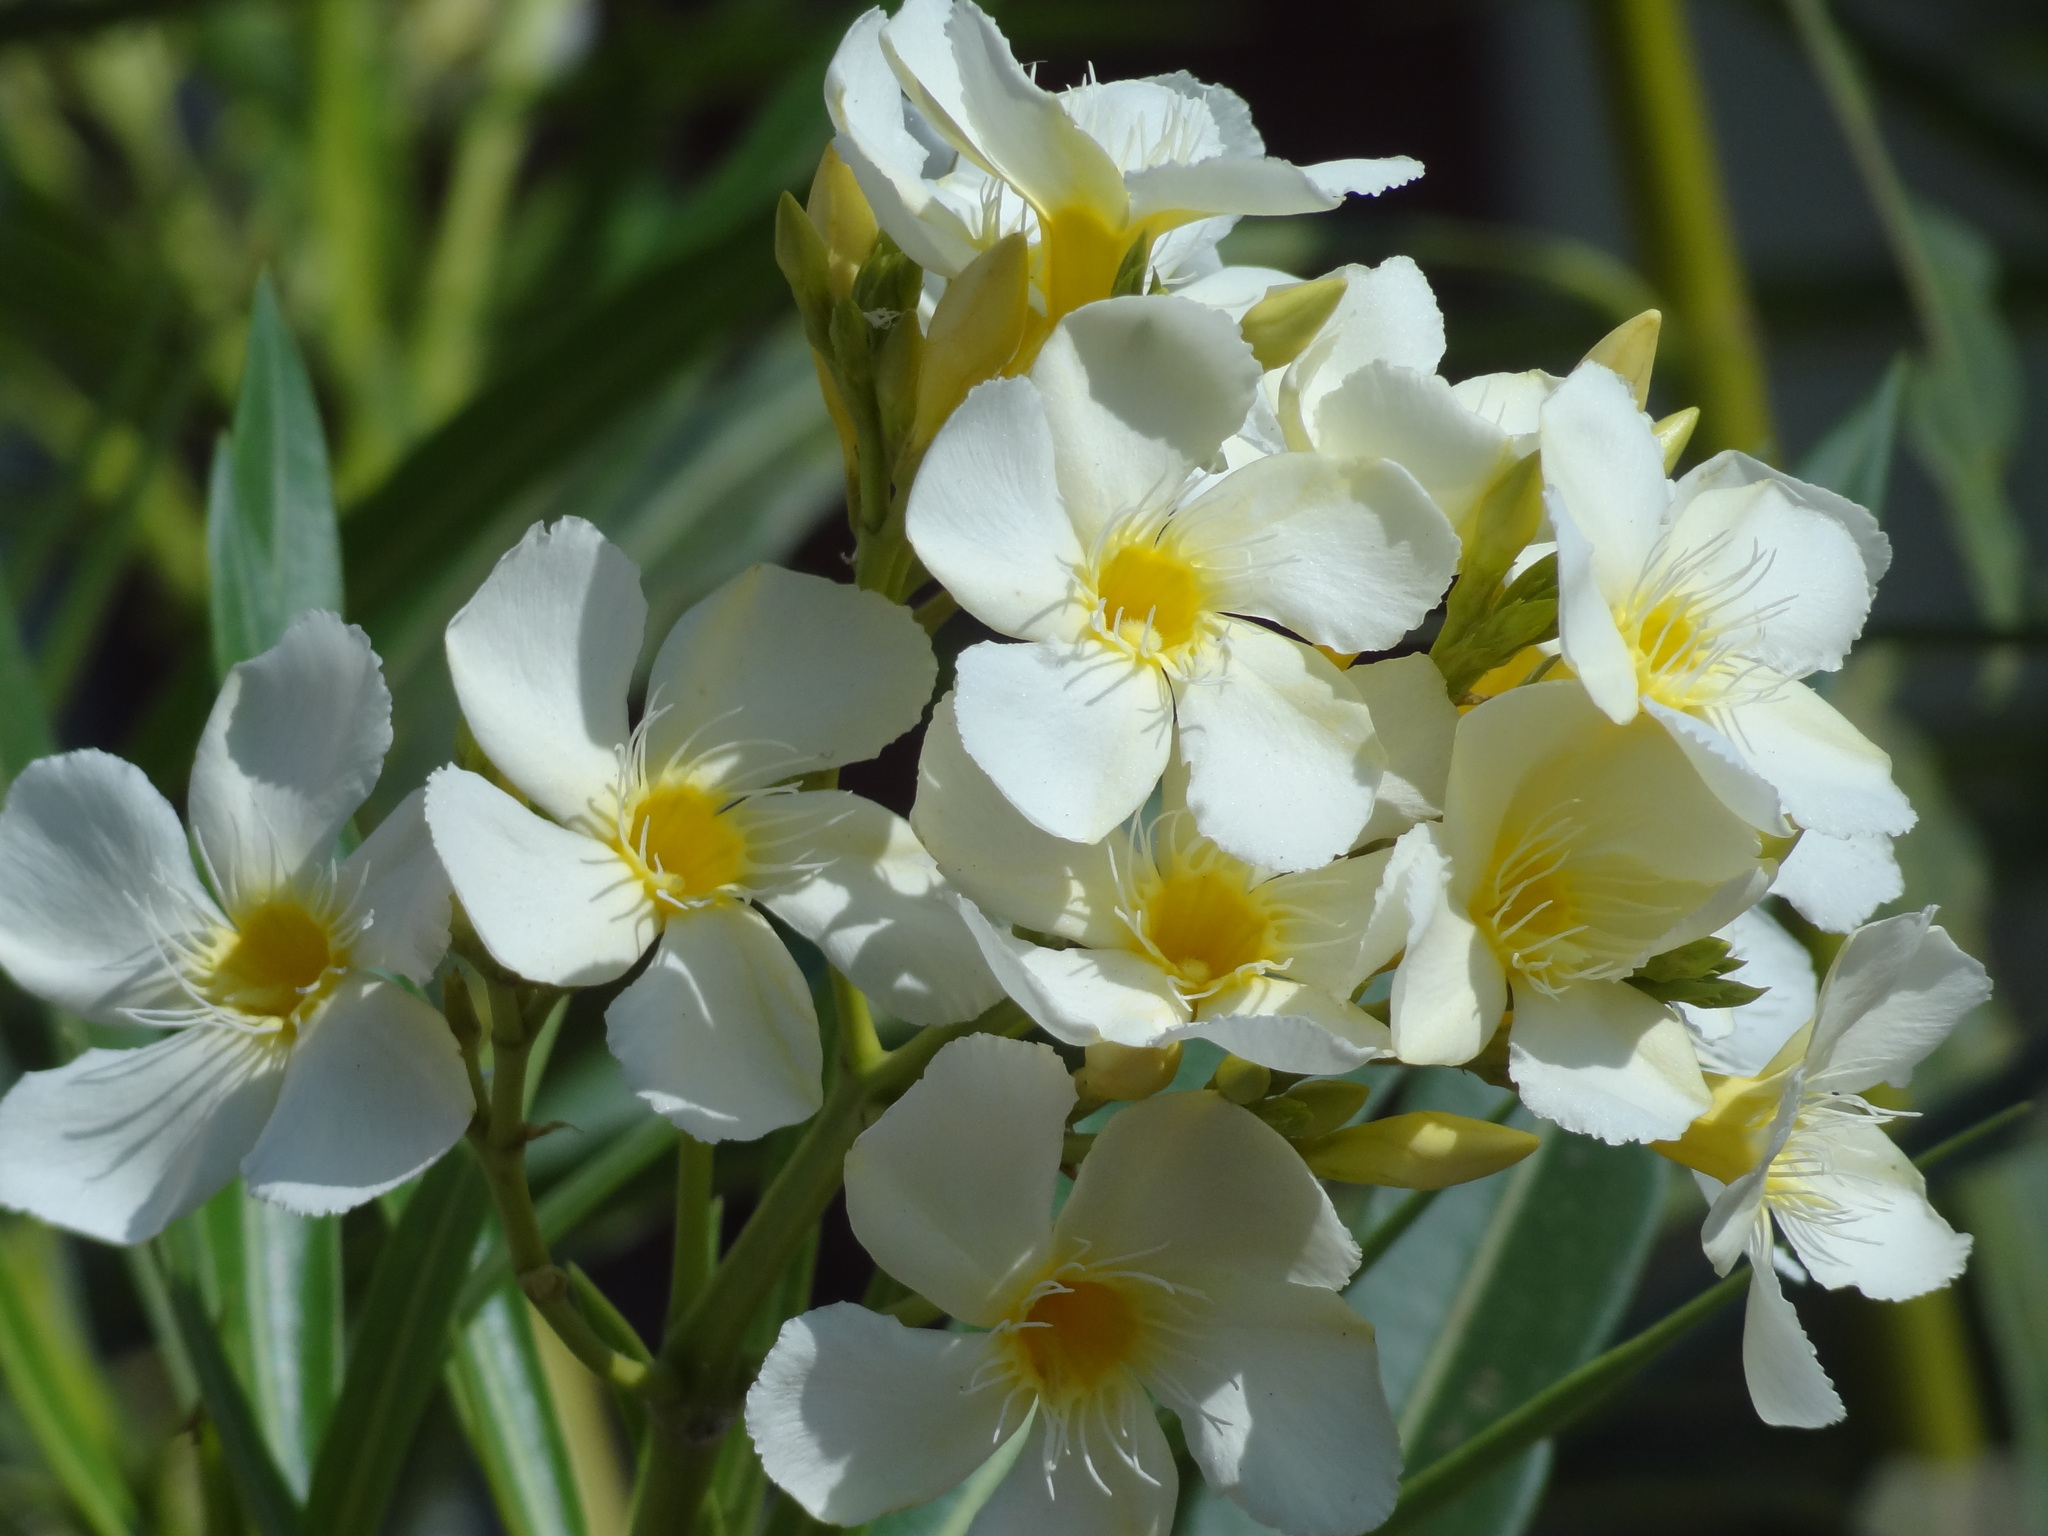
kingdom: Plantae
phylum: Tracheophyta
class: Magnoliopsida
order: Gentianales
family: Apocynaceae
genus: Nerium
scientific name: Nerium oleander
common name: Oleander
